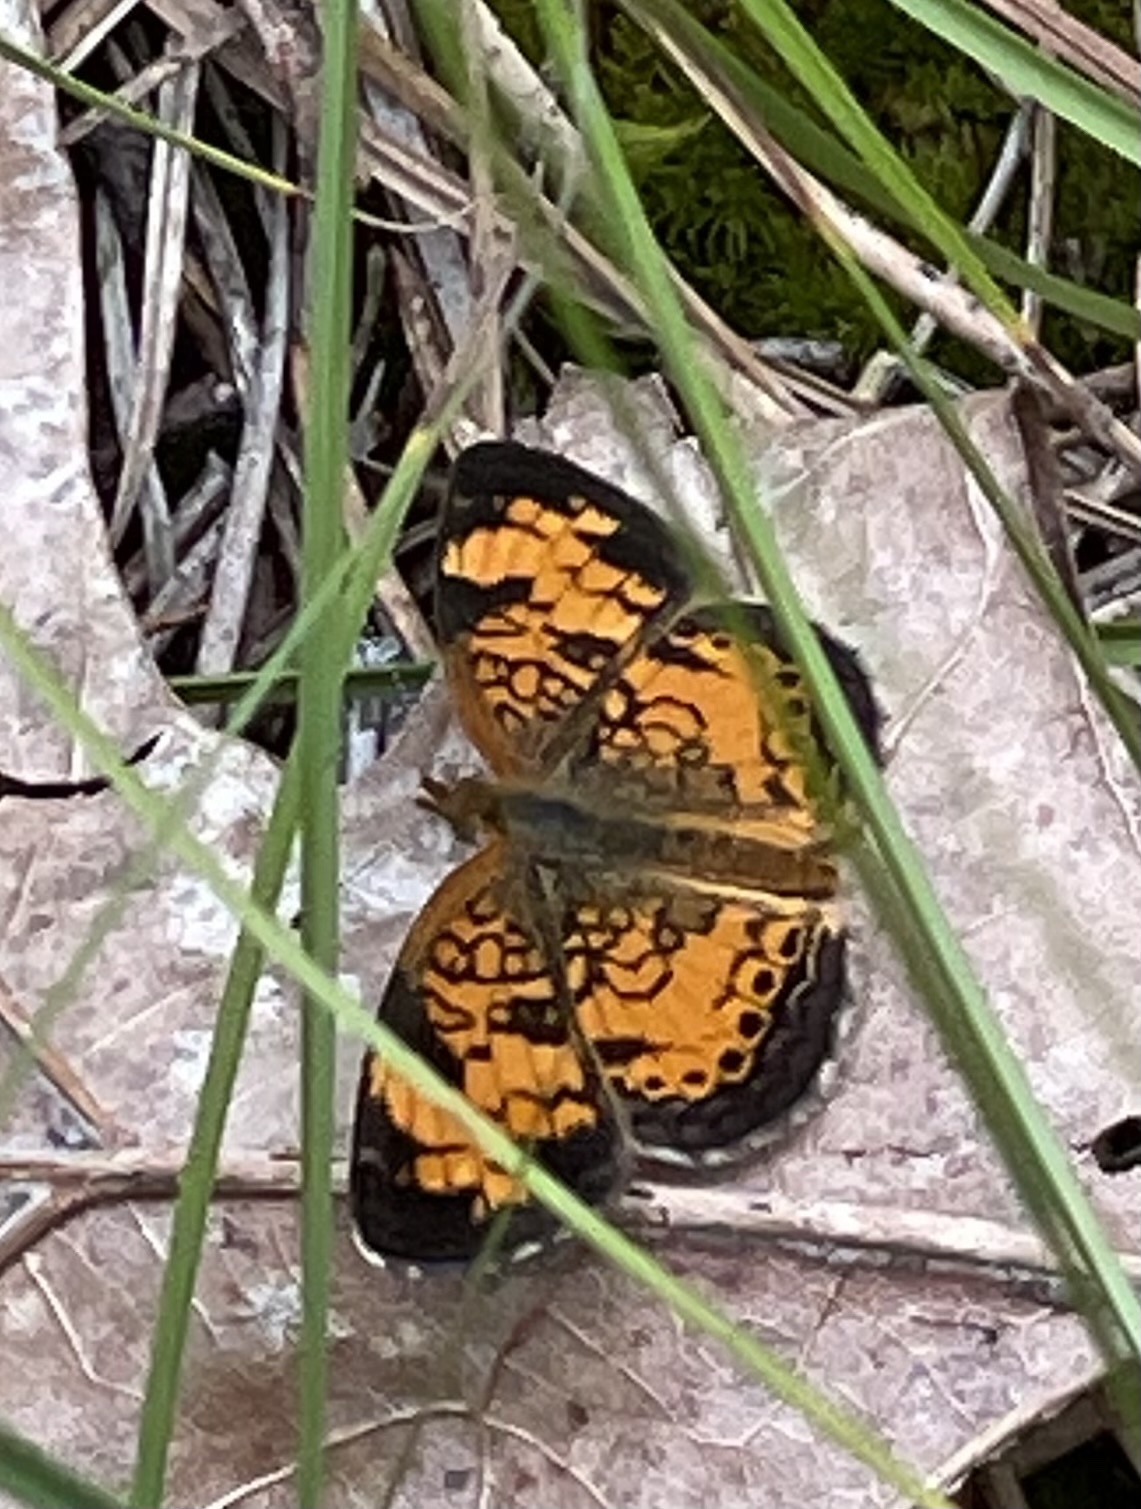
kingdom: Animalia
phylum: Arthropoda
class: Insecta
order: Lepidoptera
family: Nymphalidae
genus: Phyciodes
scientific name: Phyciodes tharos
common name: Pearl crescent
